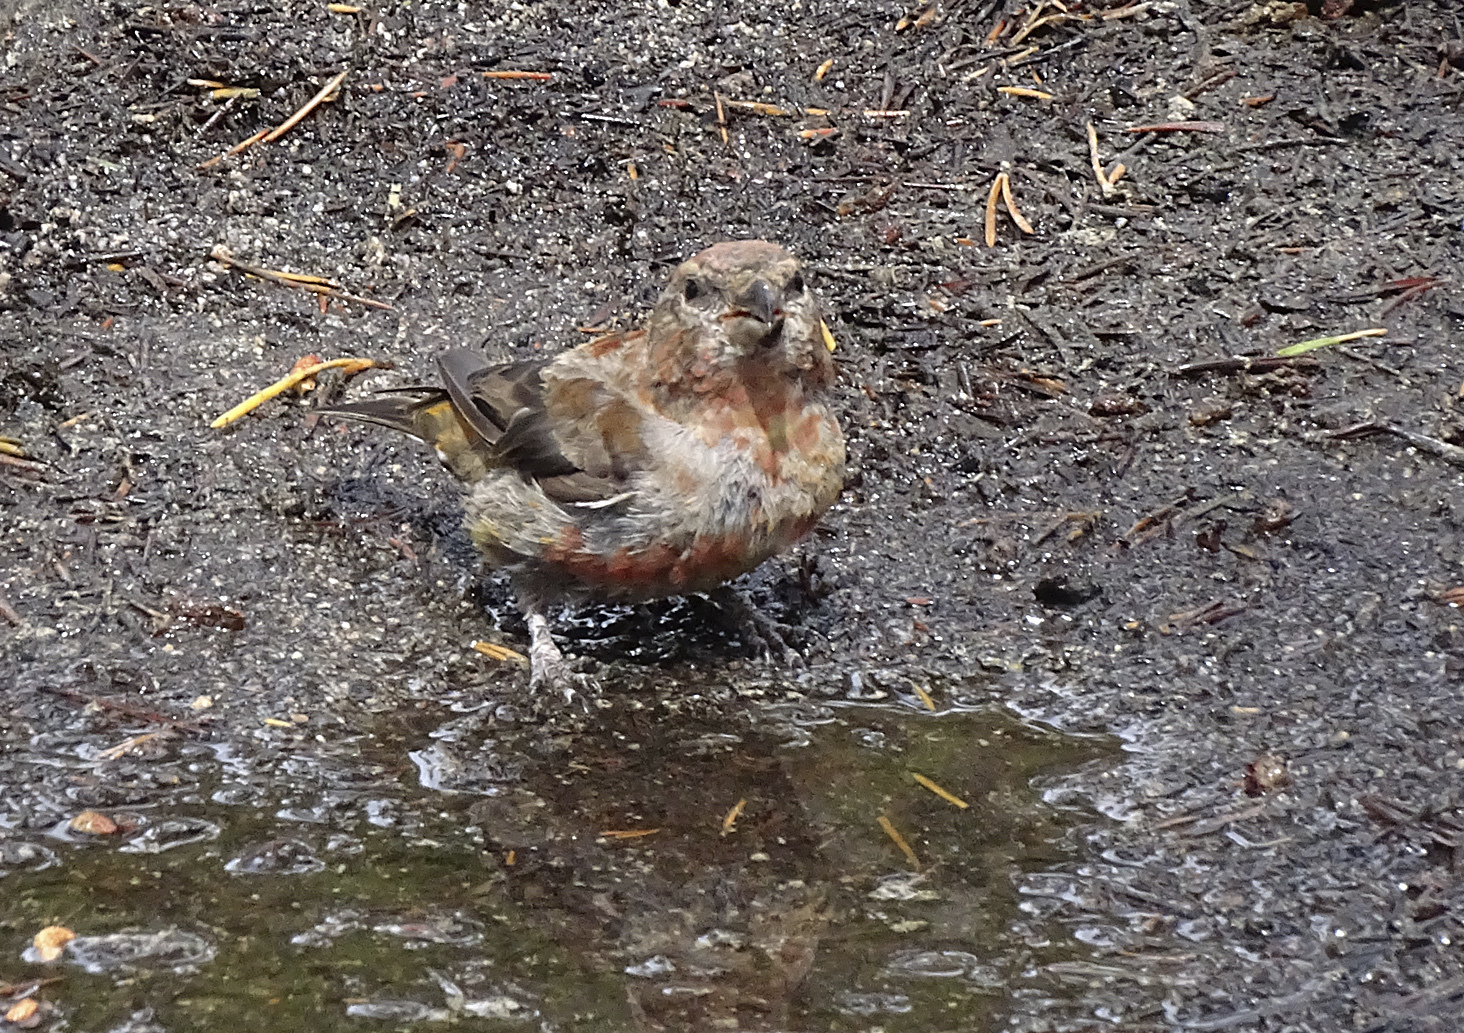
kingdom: Animalia
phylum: Chordata
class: Aves
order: Passeriformes
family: Fringillidae
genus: Loxia
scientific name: Loxia curvirostra
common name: Red crossbill
